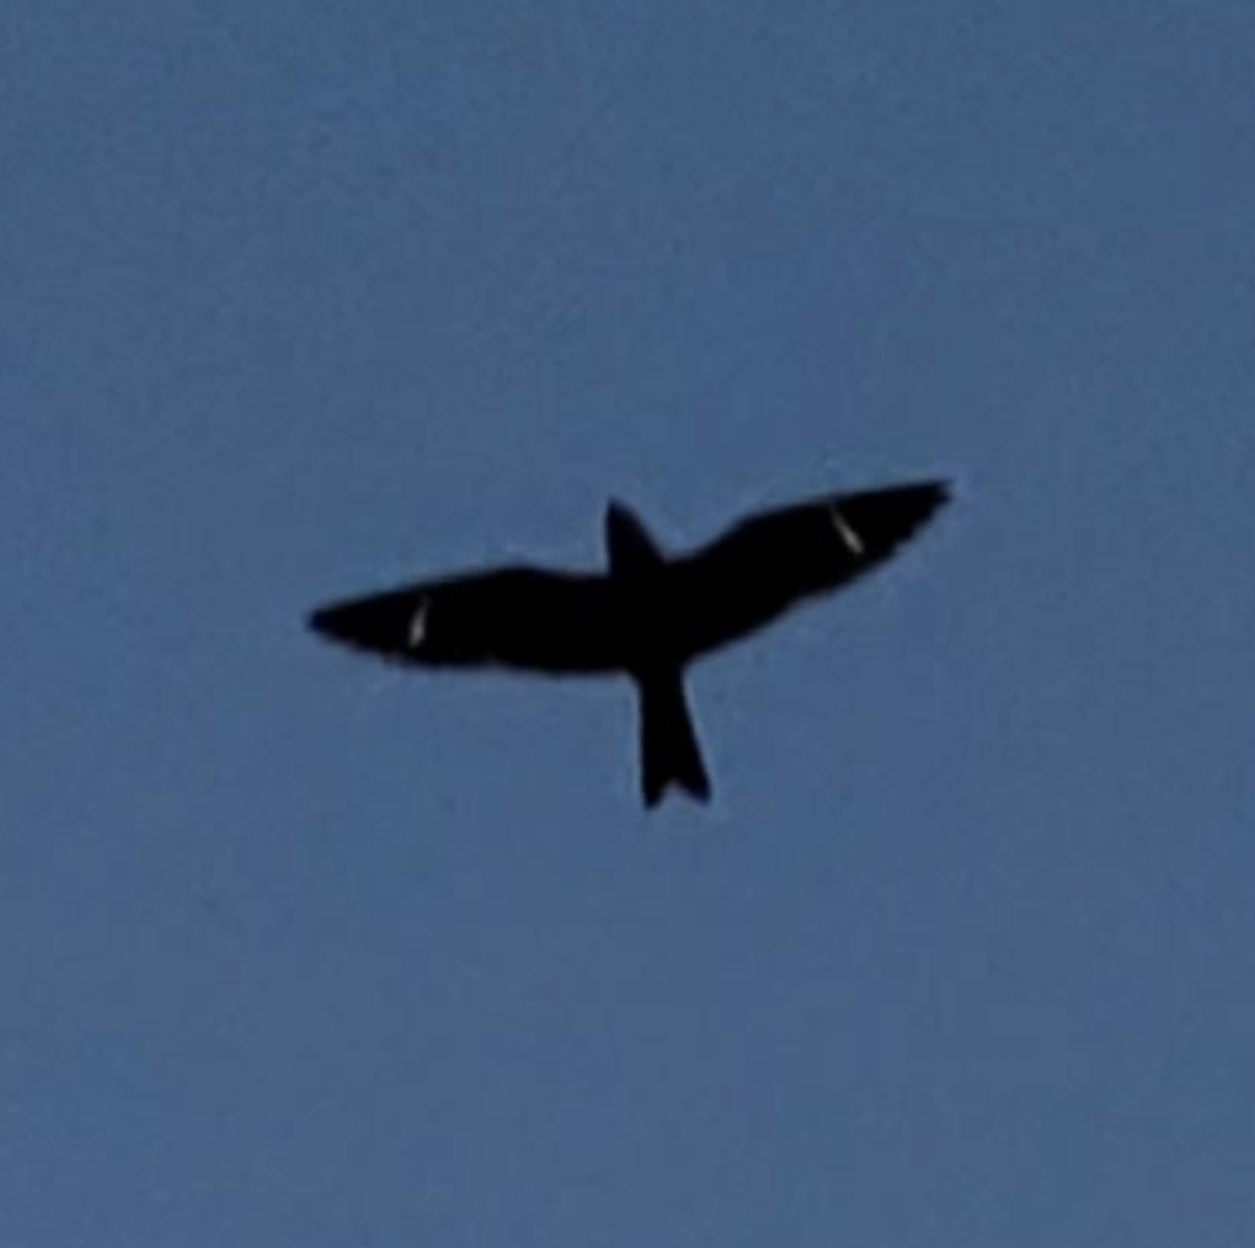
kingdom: Animalia
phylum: Chordata
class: Aves
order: Caprimulgiformes
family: Caprimulgidae
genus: Chordeiles
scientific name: Chordeiles minor
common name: Common nighthawk
